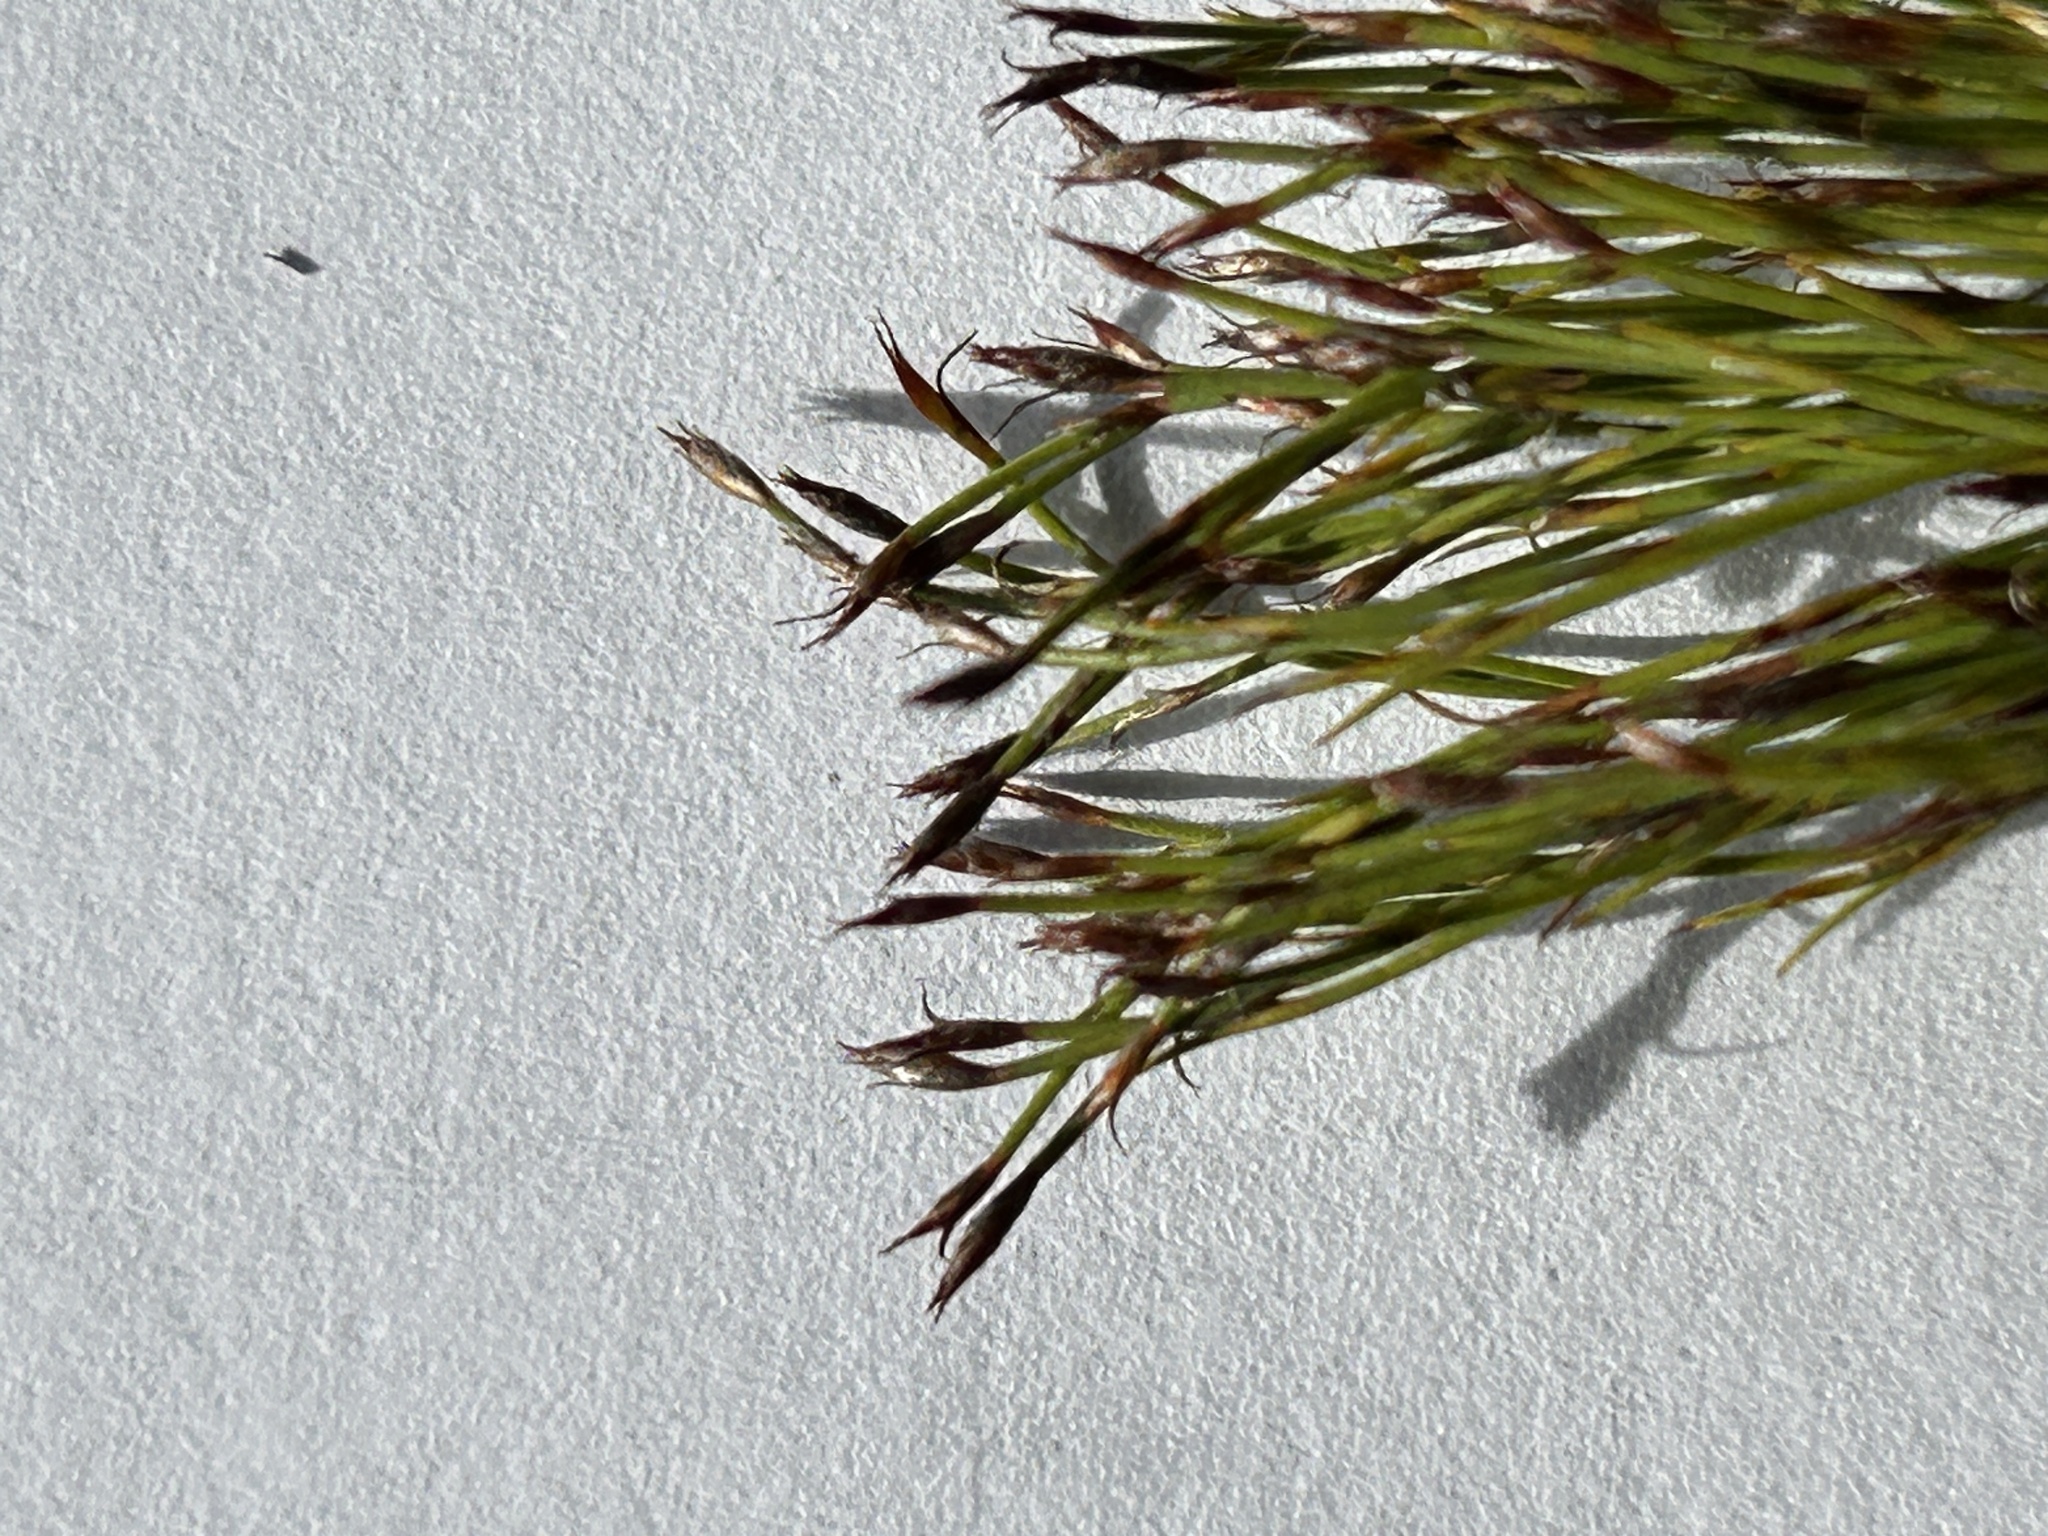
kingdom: Plantae
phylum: Tracheophyta
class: Liliopsida
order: Poales
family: Restionaceae
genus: Restio
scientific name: Restio leptoclados
